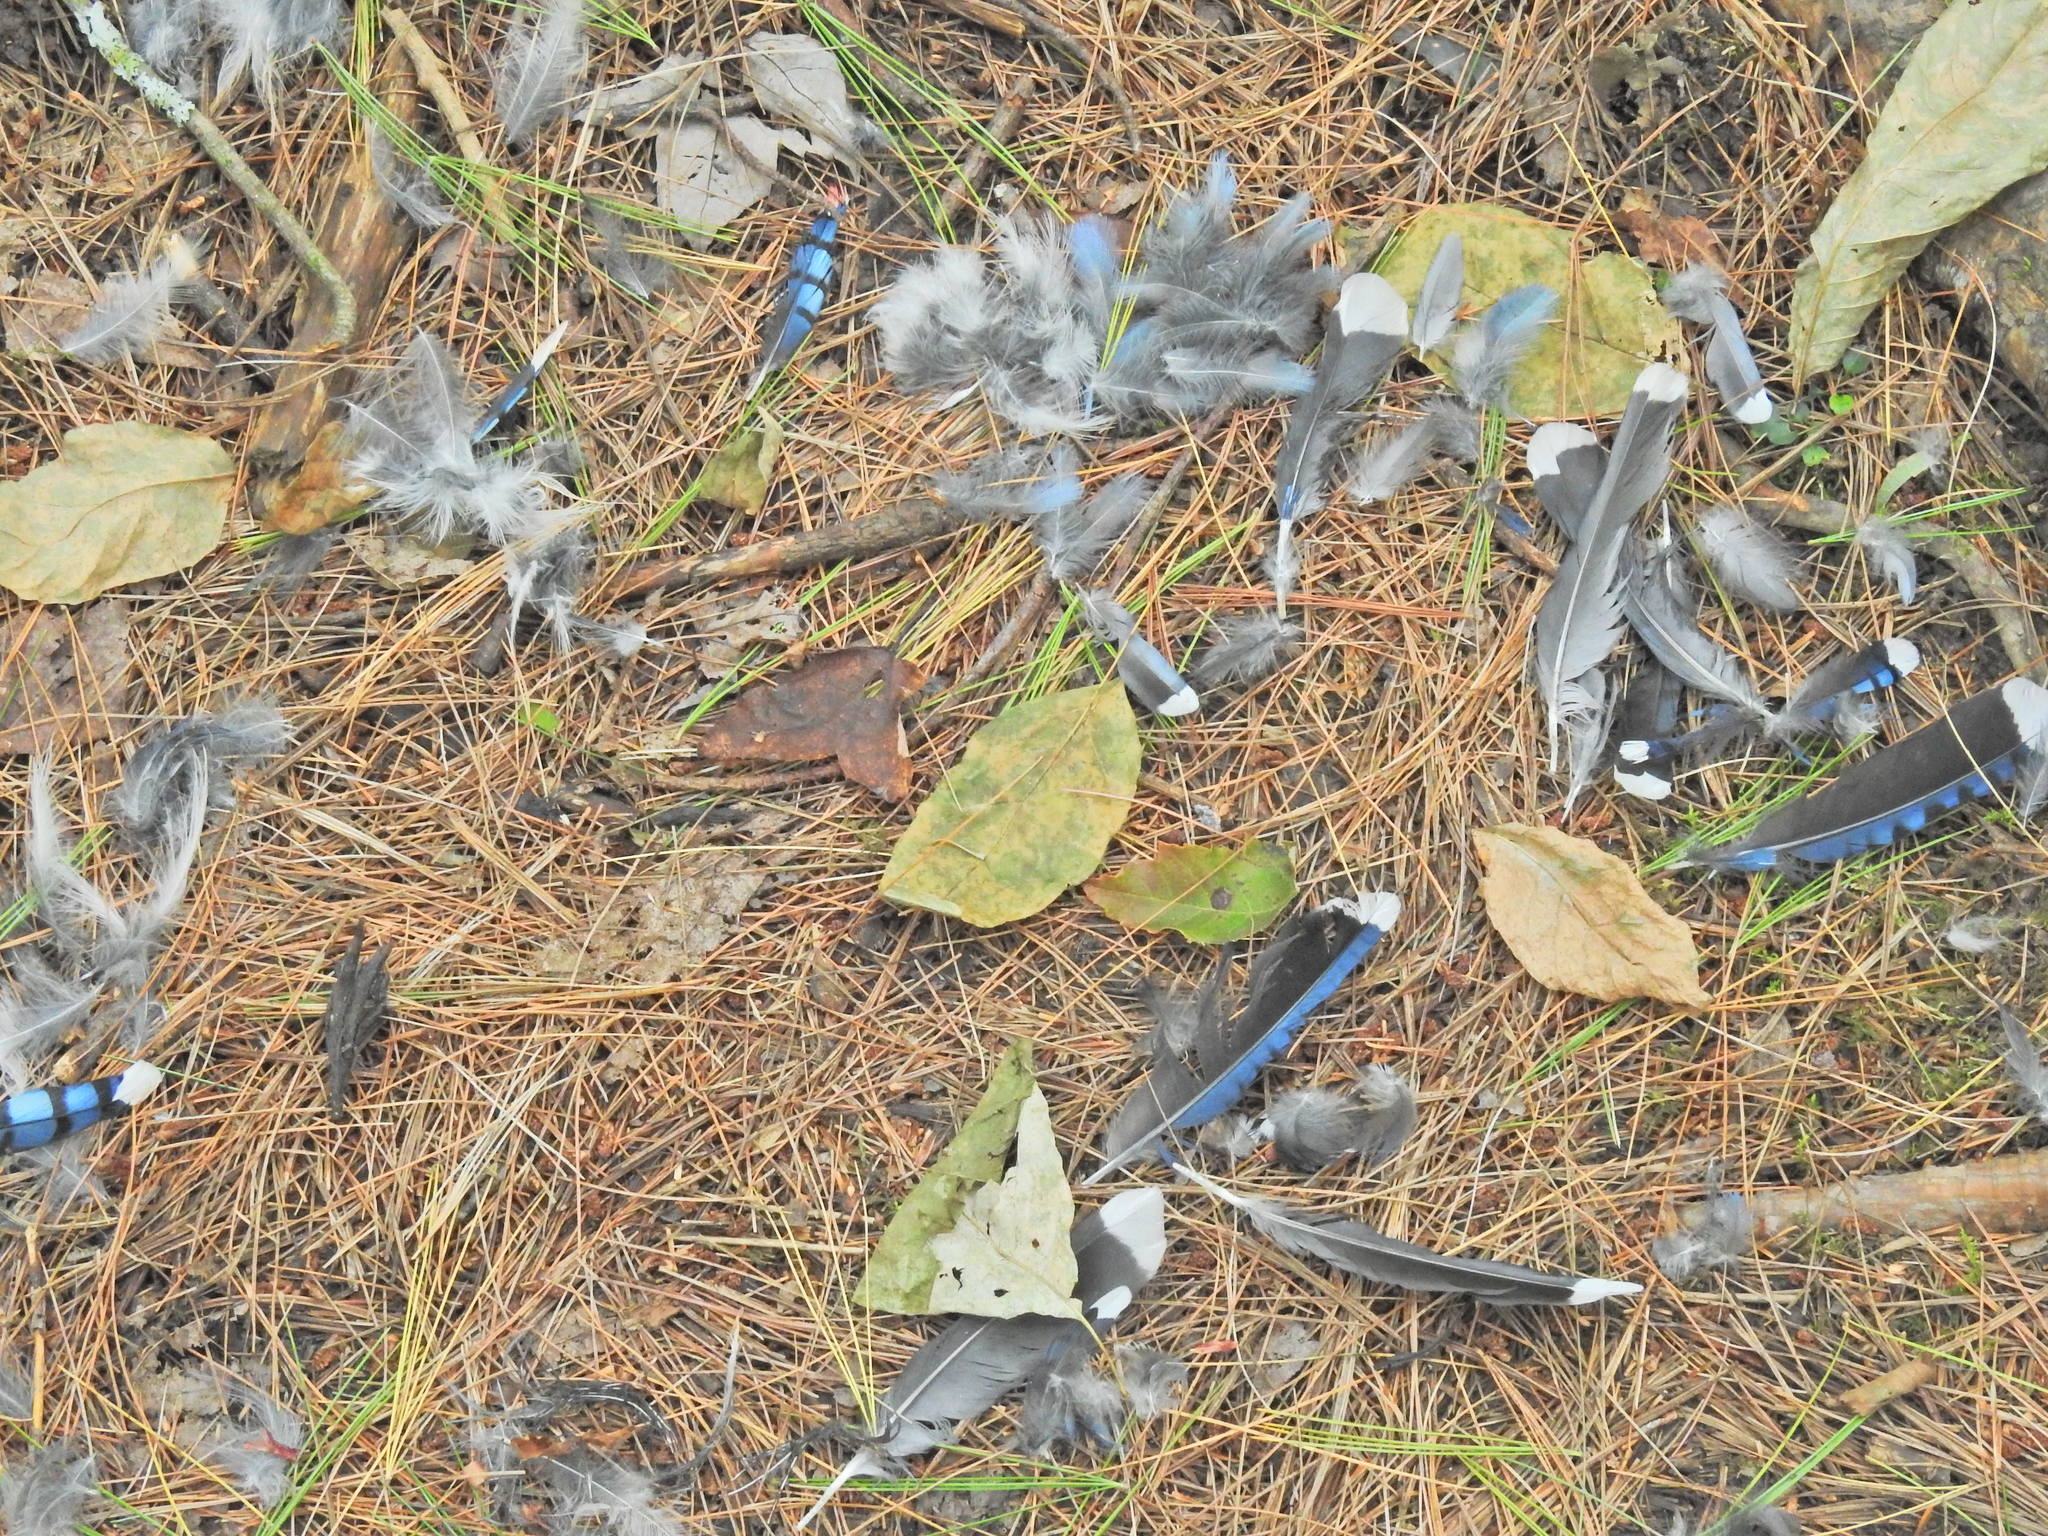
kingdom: Animalia
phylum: Chordata
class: Aves
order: Passeriformes
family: Corvidae
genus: Cyanocitta
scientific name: Cyanocitta cristata
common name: Blue jay
